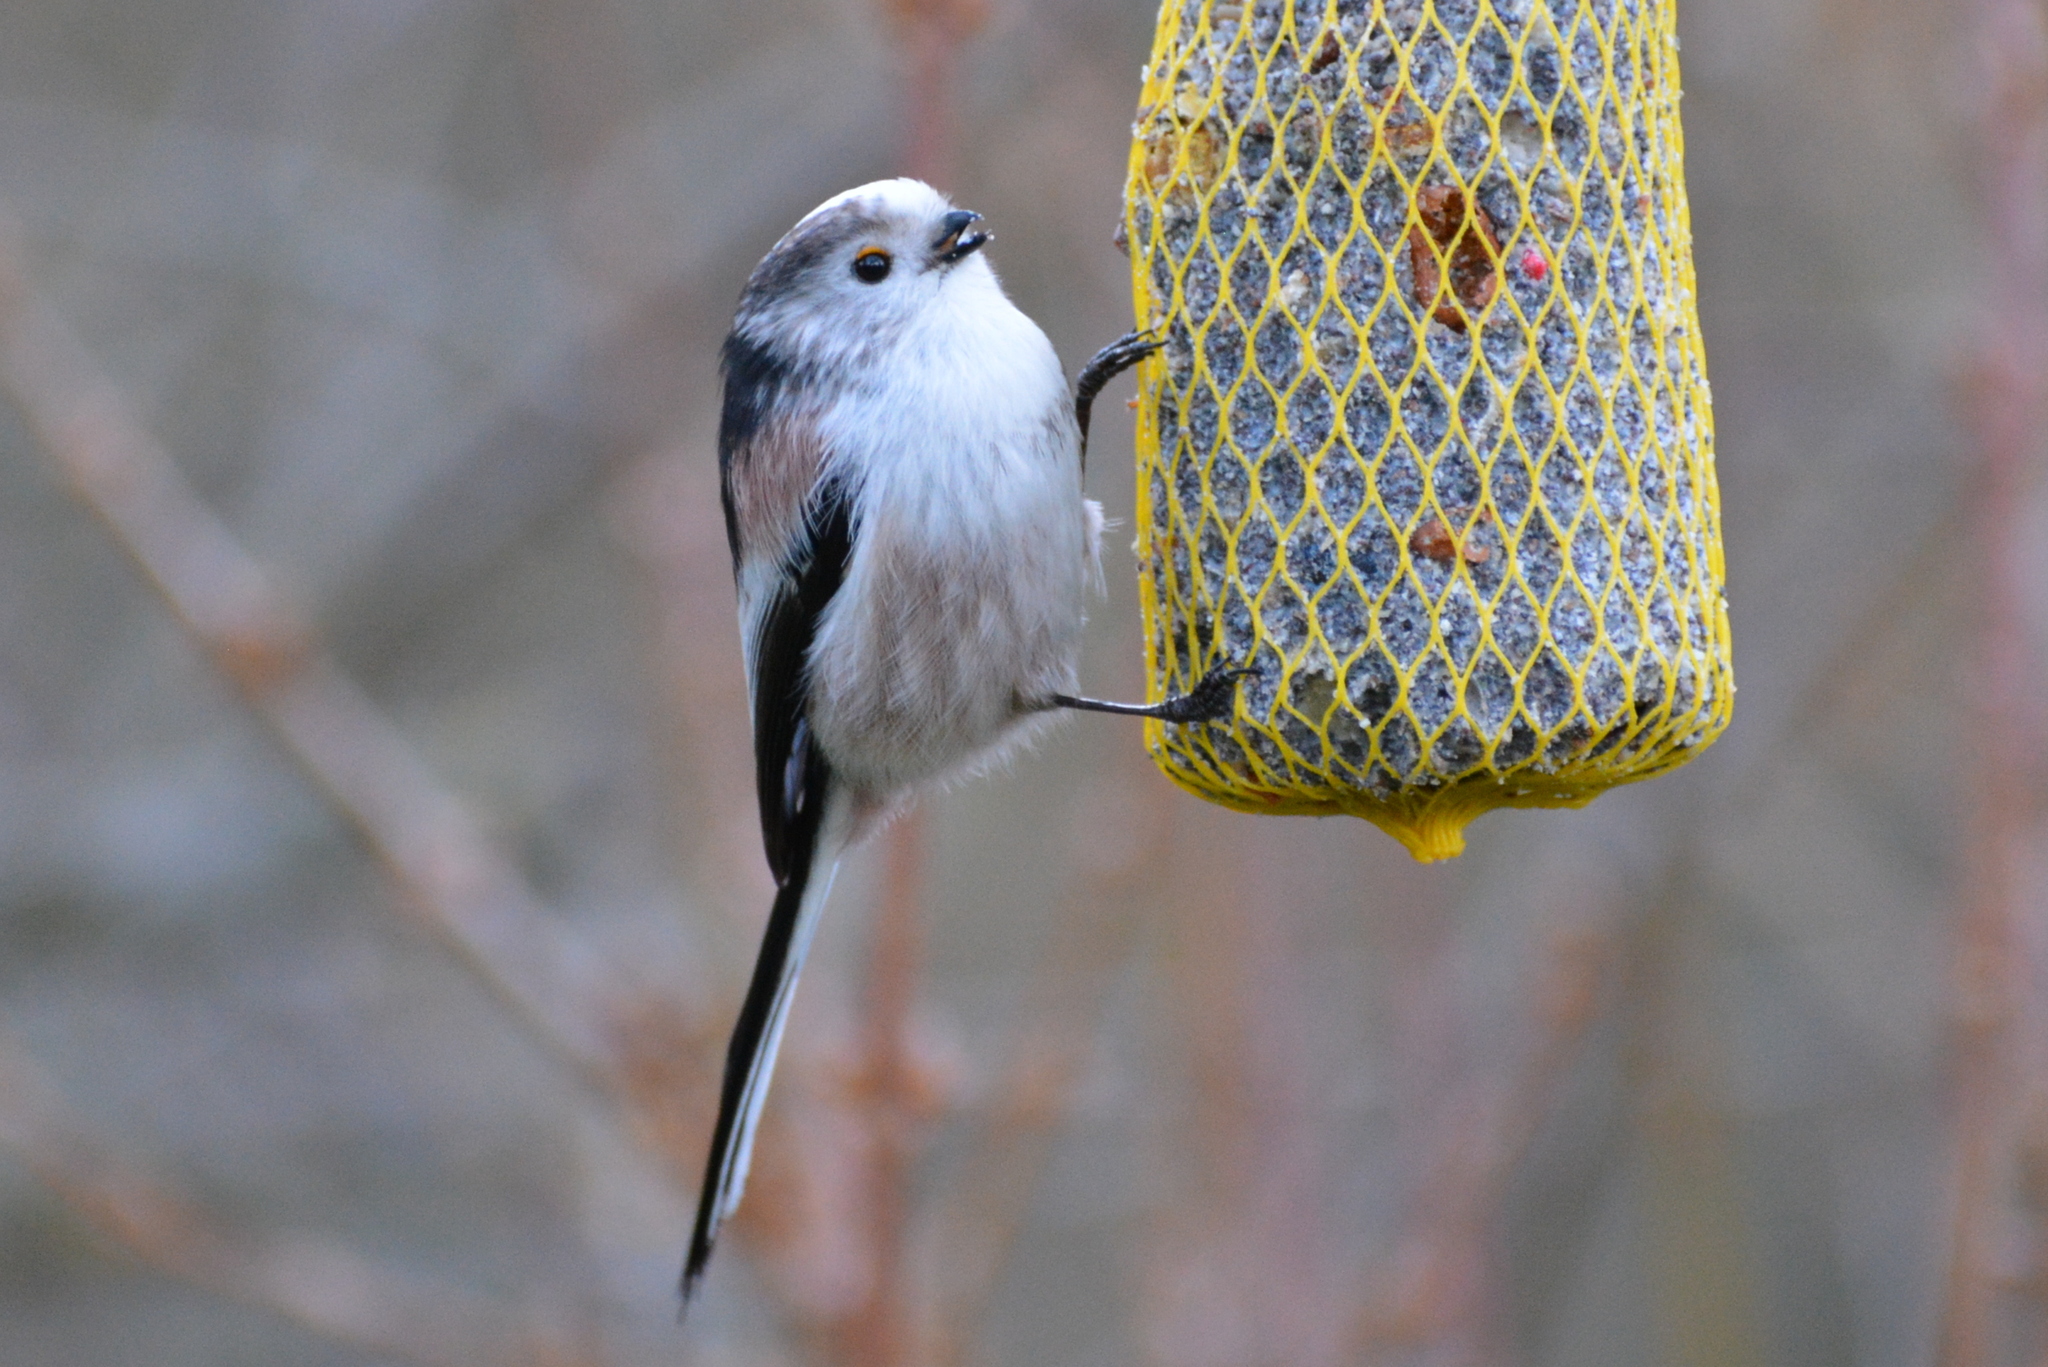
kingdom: Animalia
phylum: Chordata
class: Aves
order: Passeriformes
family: Aegithalidae
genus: Aegithalos
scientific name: Aegithalos caudatus
